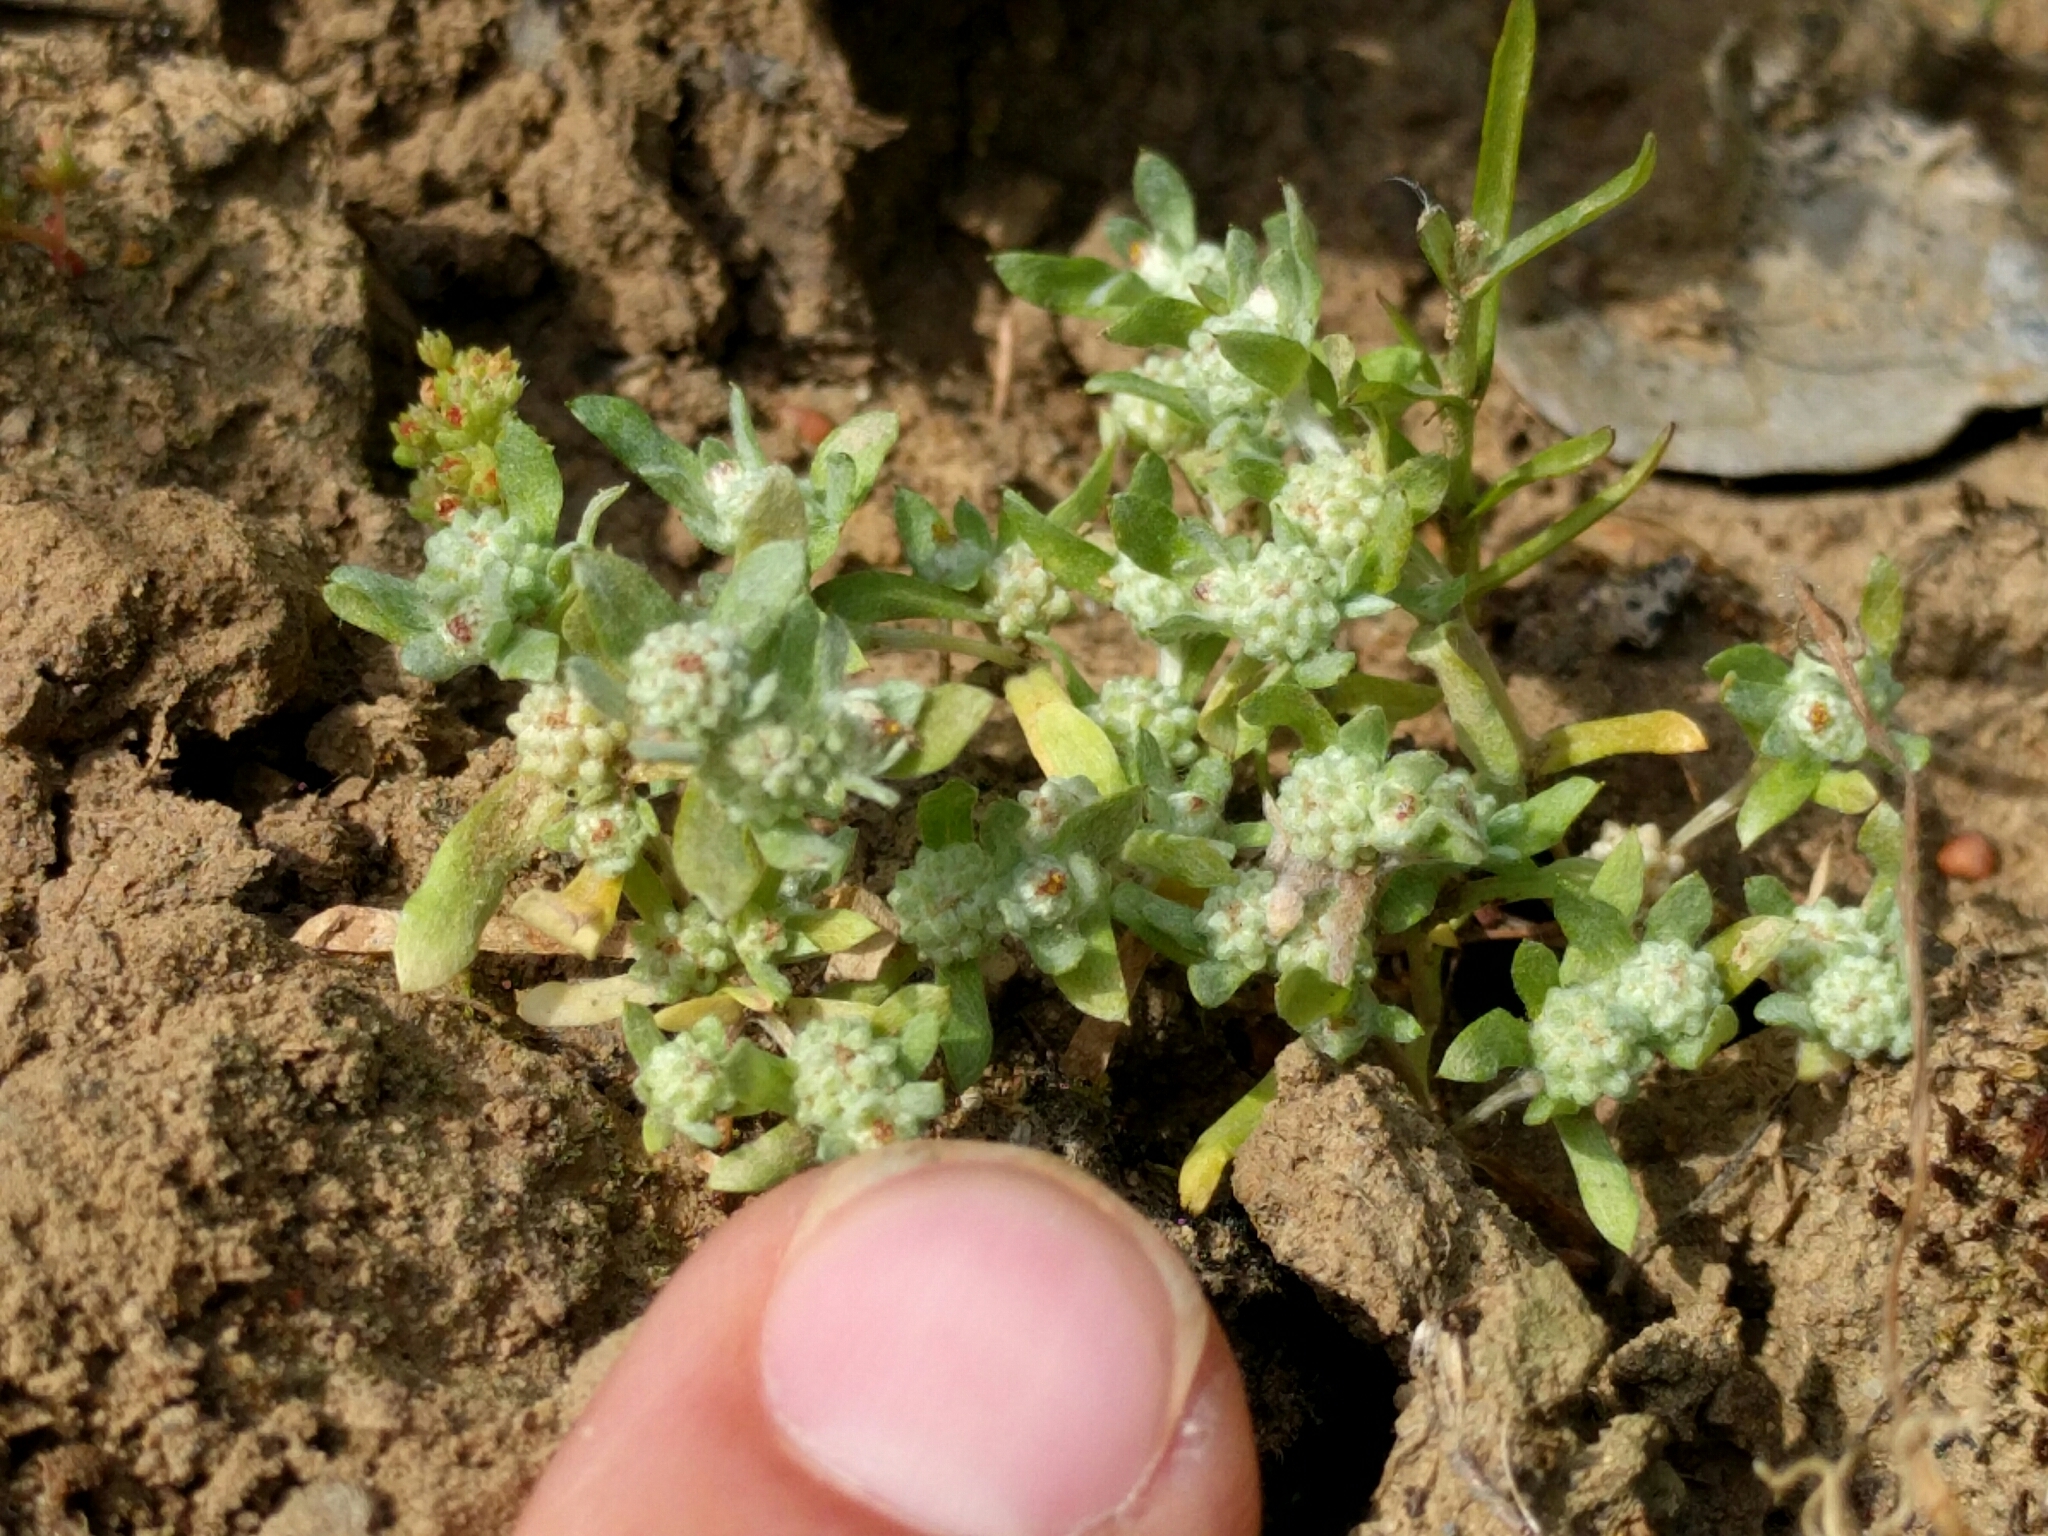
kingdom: Plantae
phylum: Tracheophyta
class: Magnoliopsida
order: Asterales
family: Asteraceae
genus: Psilocarphus
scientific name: Psilocarphus tenellus
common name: Slender woolly-marbles
